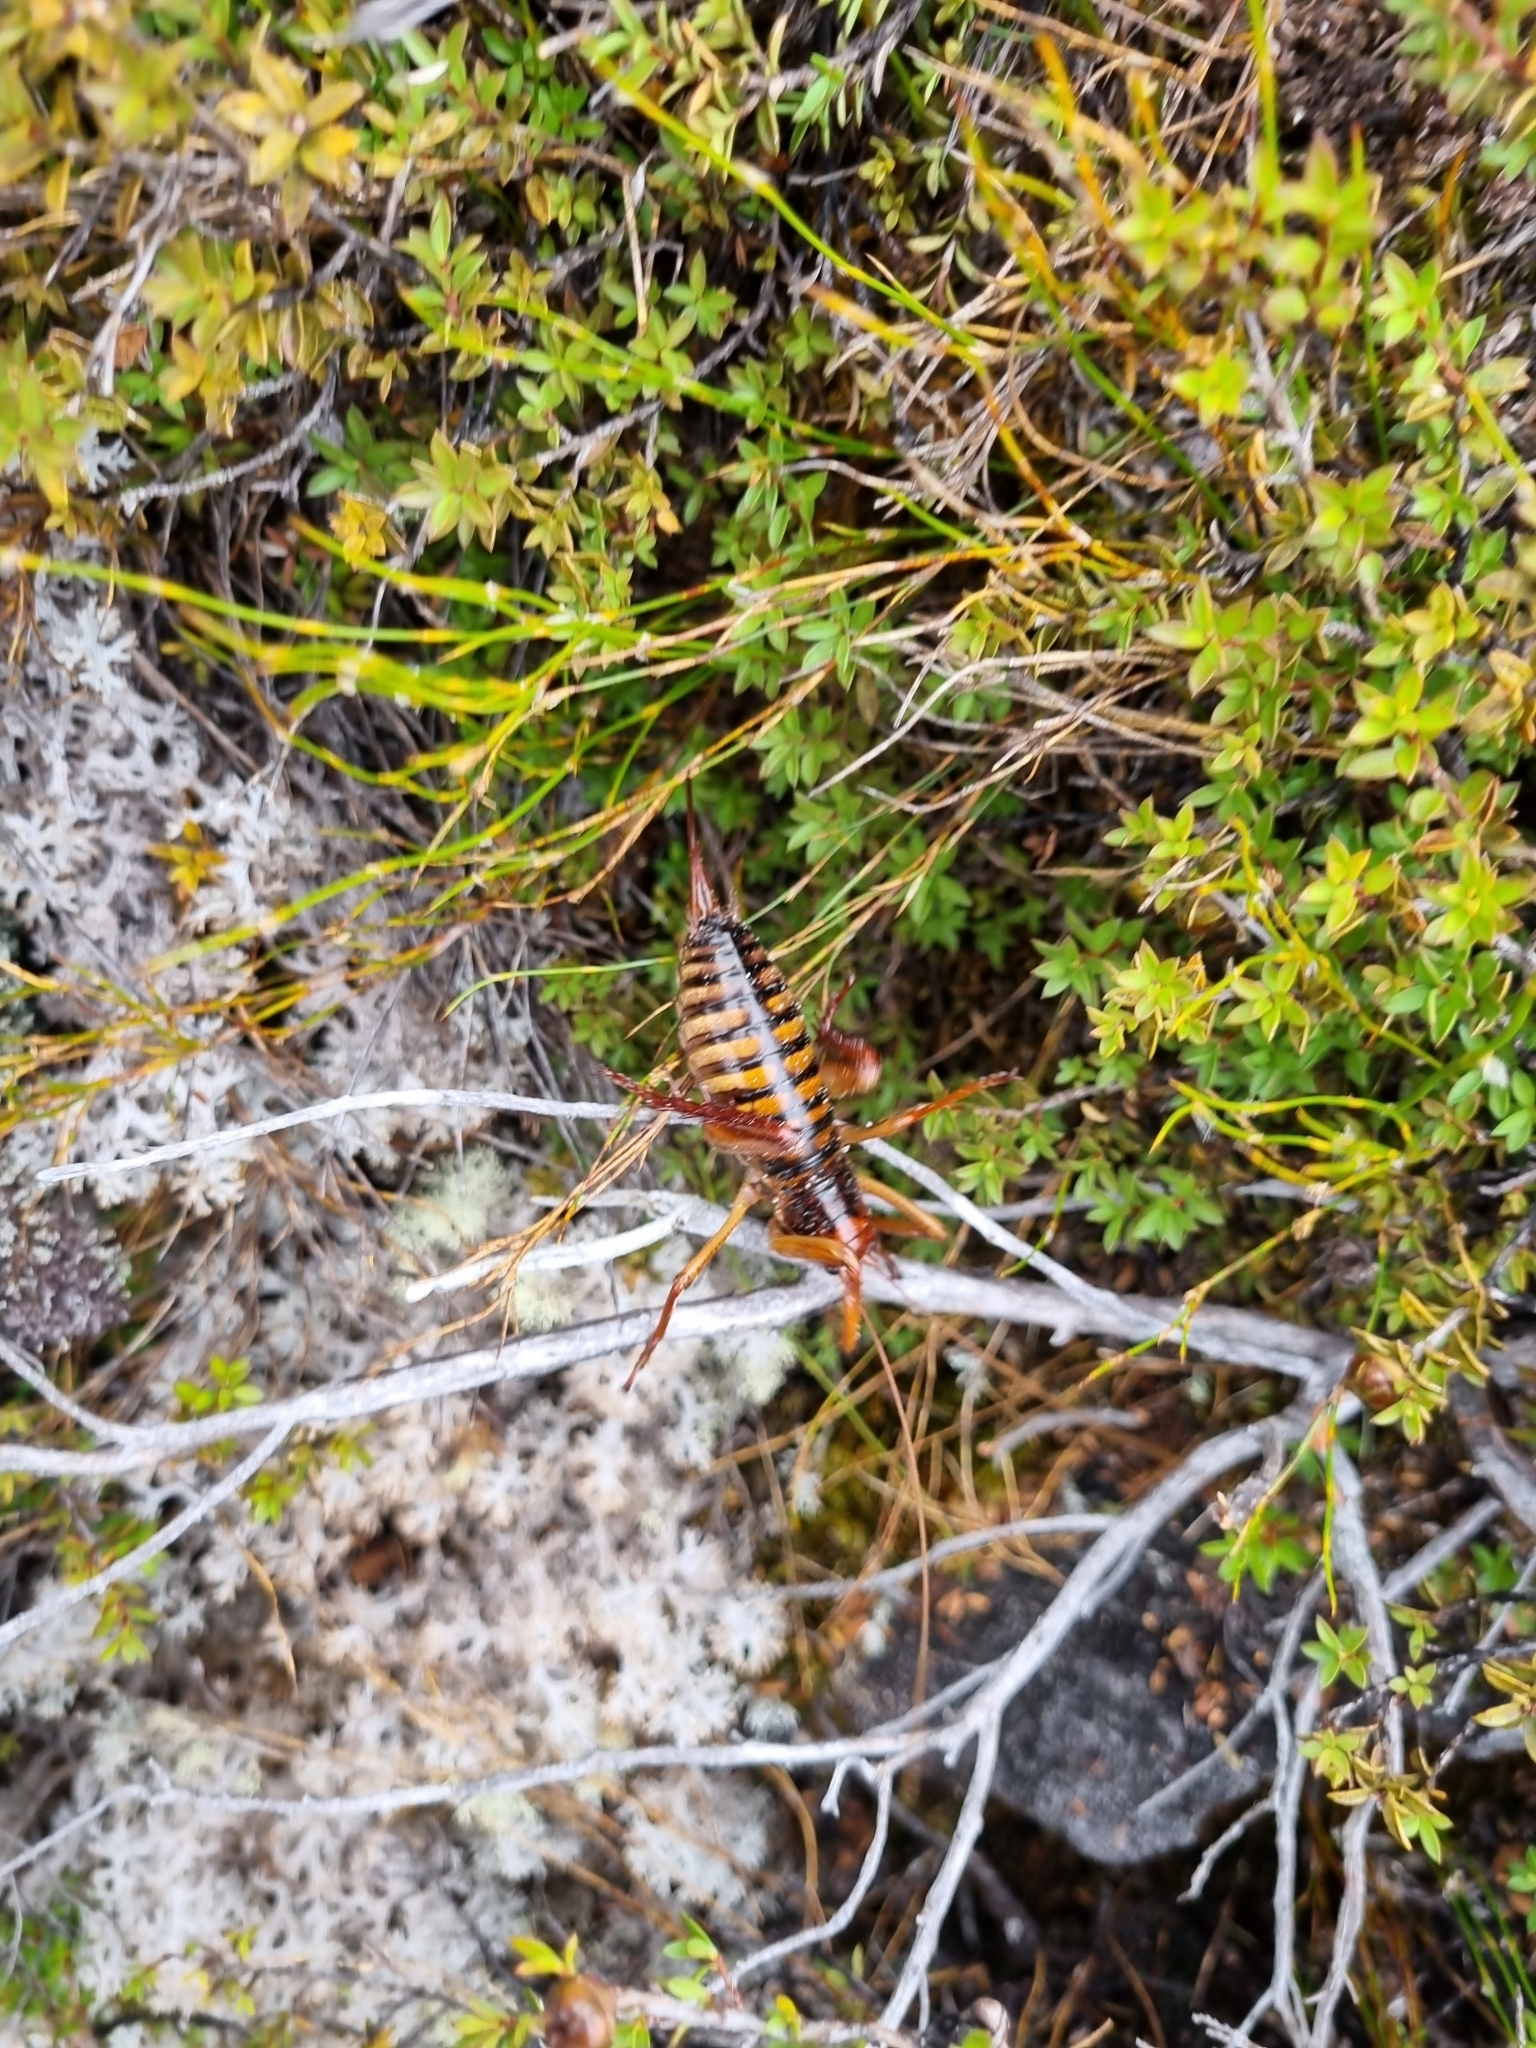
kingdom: Animalia
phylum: Arthropoda
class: Insecta
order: Orthoptera
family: Anostostomatidae
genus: Hemideina
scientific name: Hemideina crassidens
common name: Wellington tree weta
